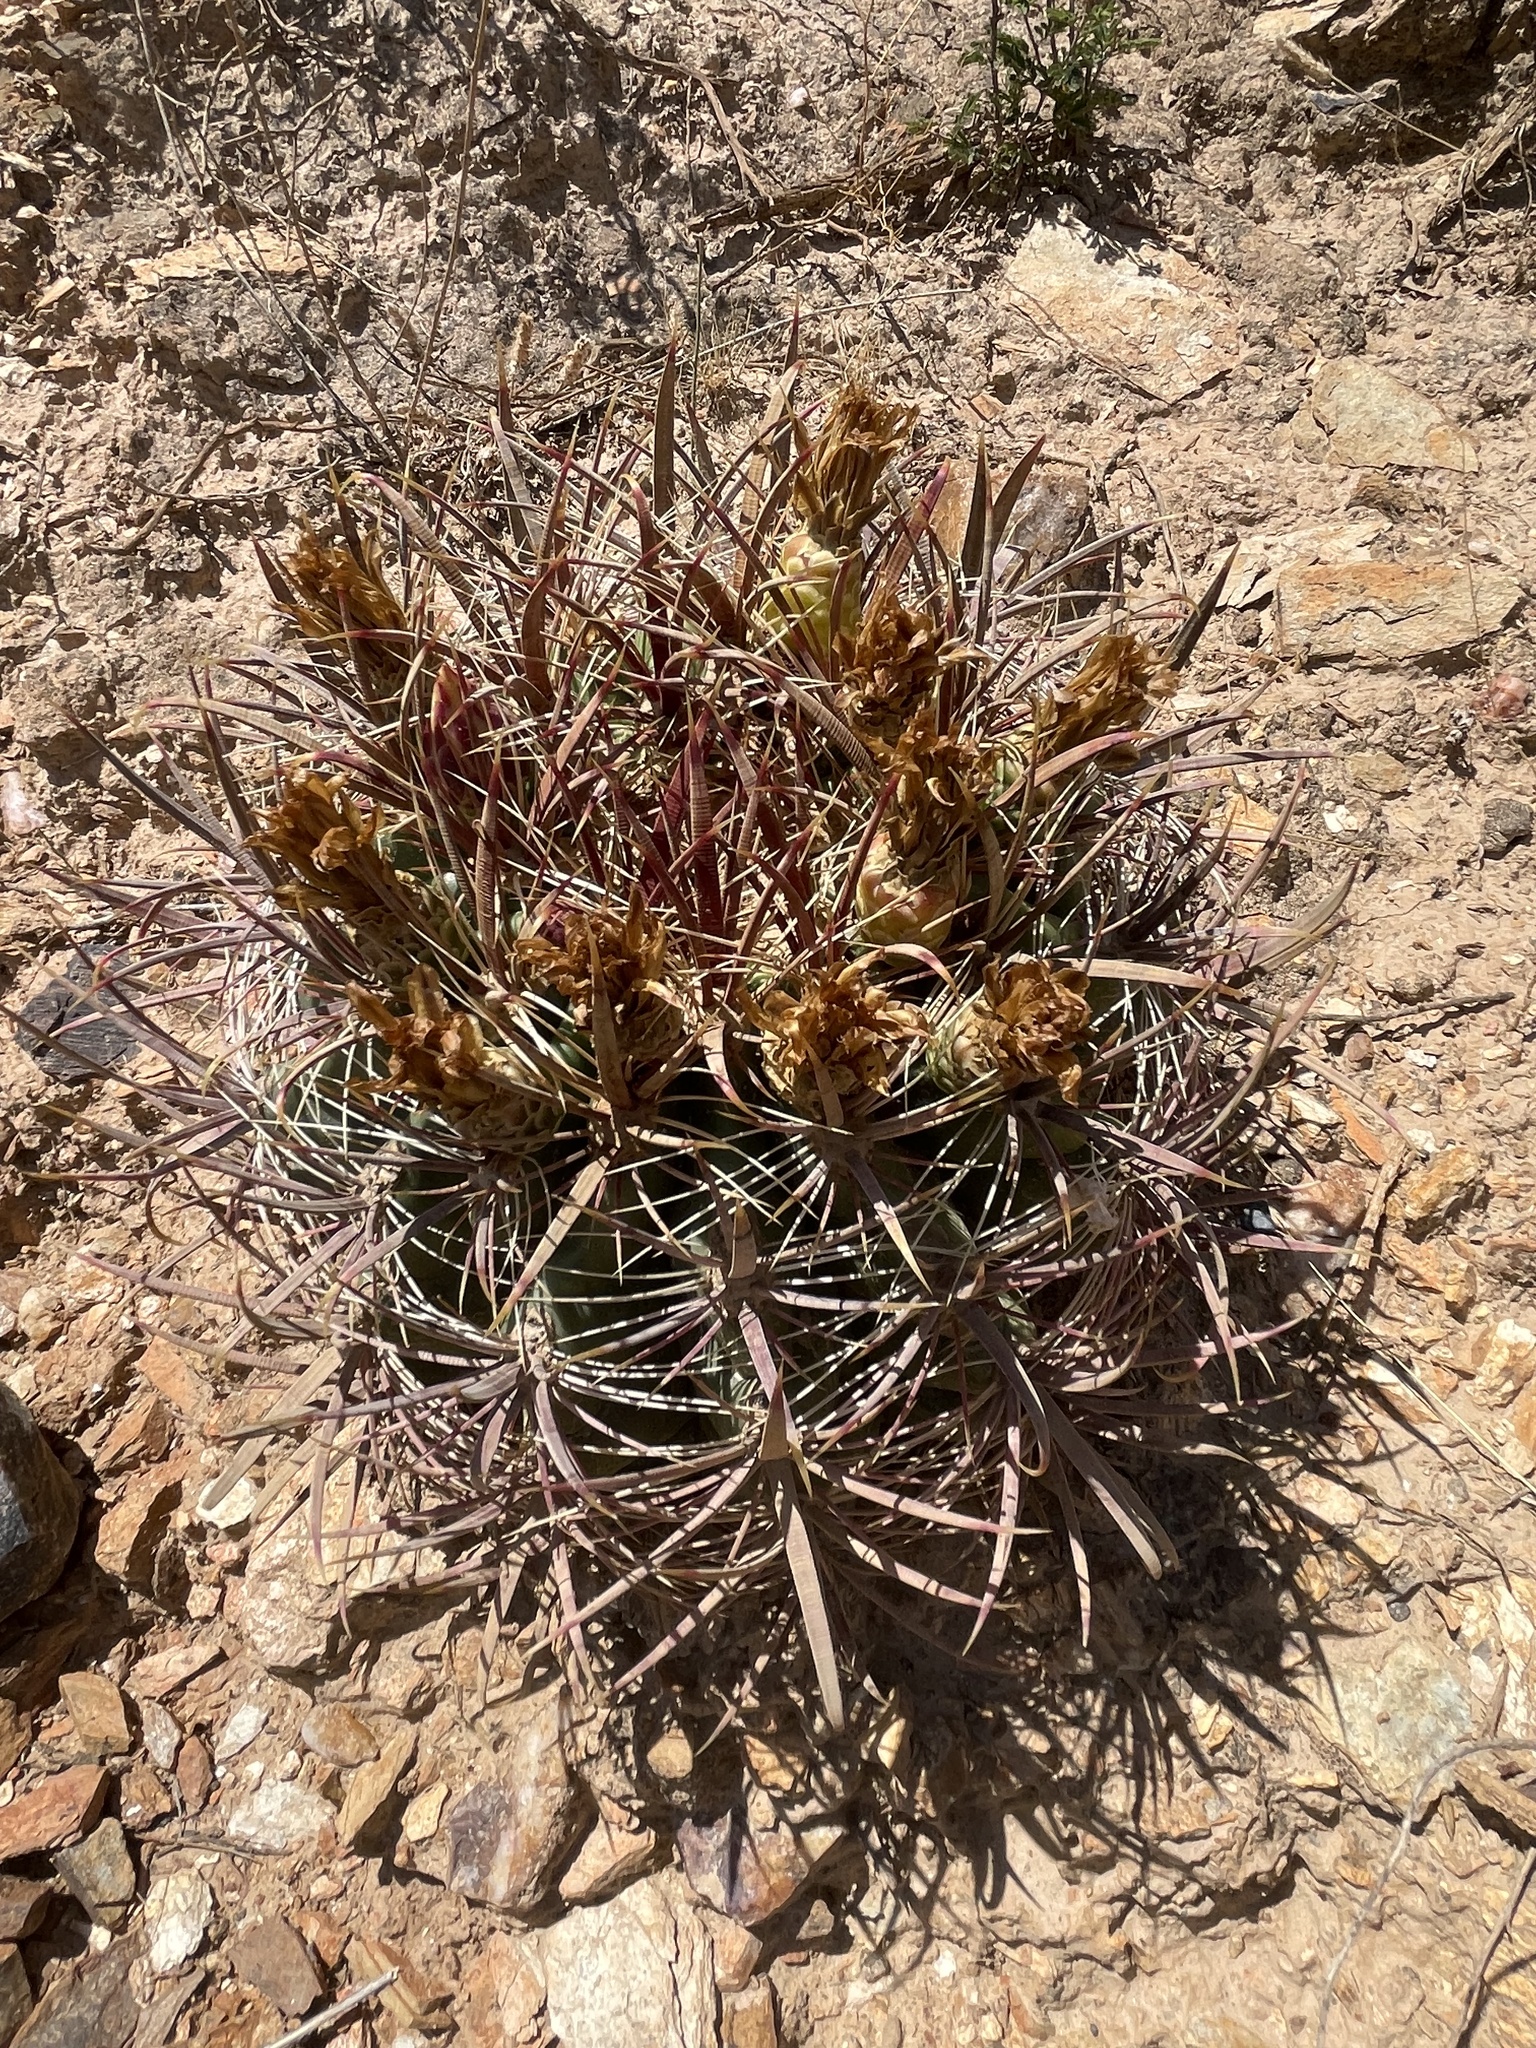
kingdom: Plantae
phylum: Tracheophyta
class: Magnoliopsida
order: Caryophyllales
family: Cactaceae
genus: Ferocactus
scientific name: Ferocactus cylindraceus
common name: California barrel cactus
